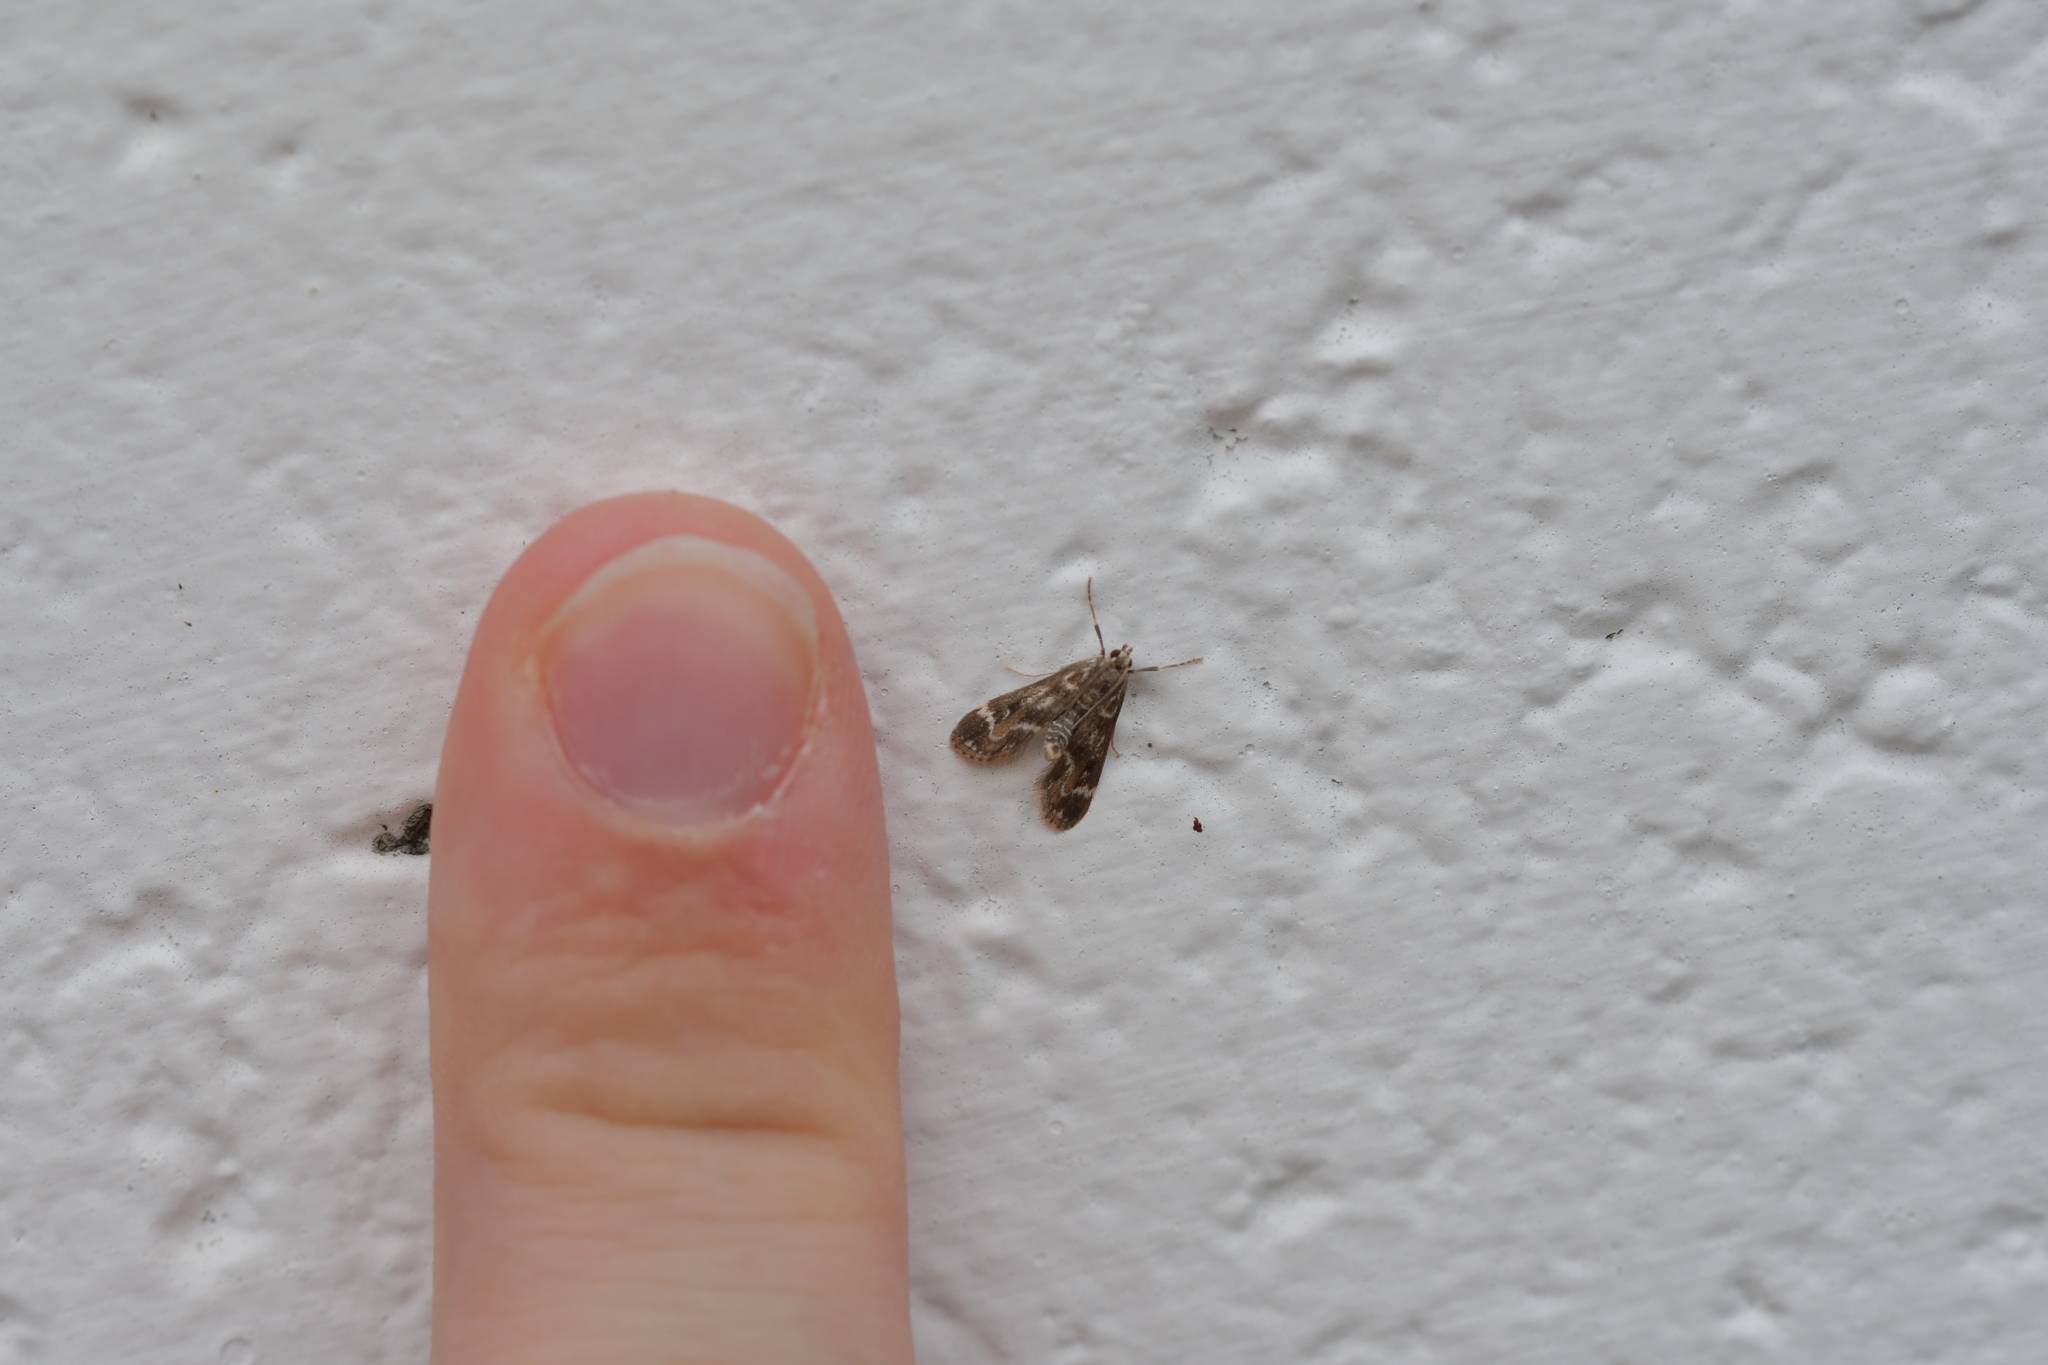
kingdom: Animalia
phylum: Arthropoda
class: Insecta
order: Lepidoptera
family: Crambidae
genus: Hygraula
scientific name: Hygraula nitens
